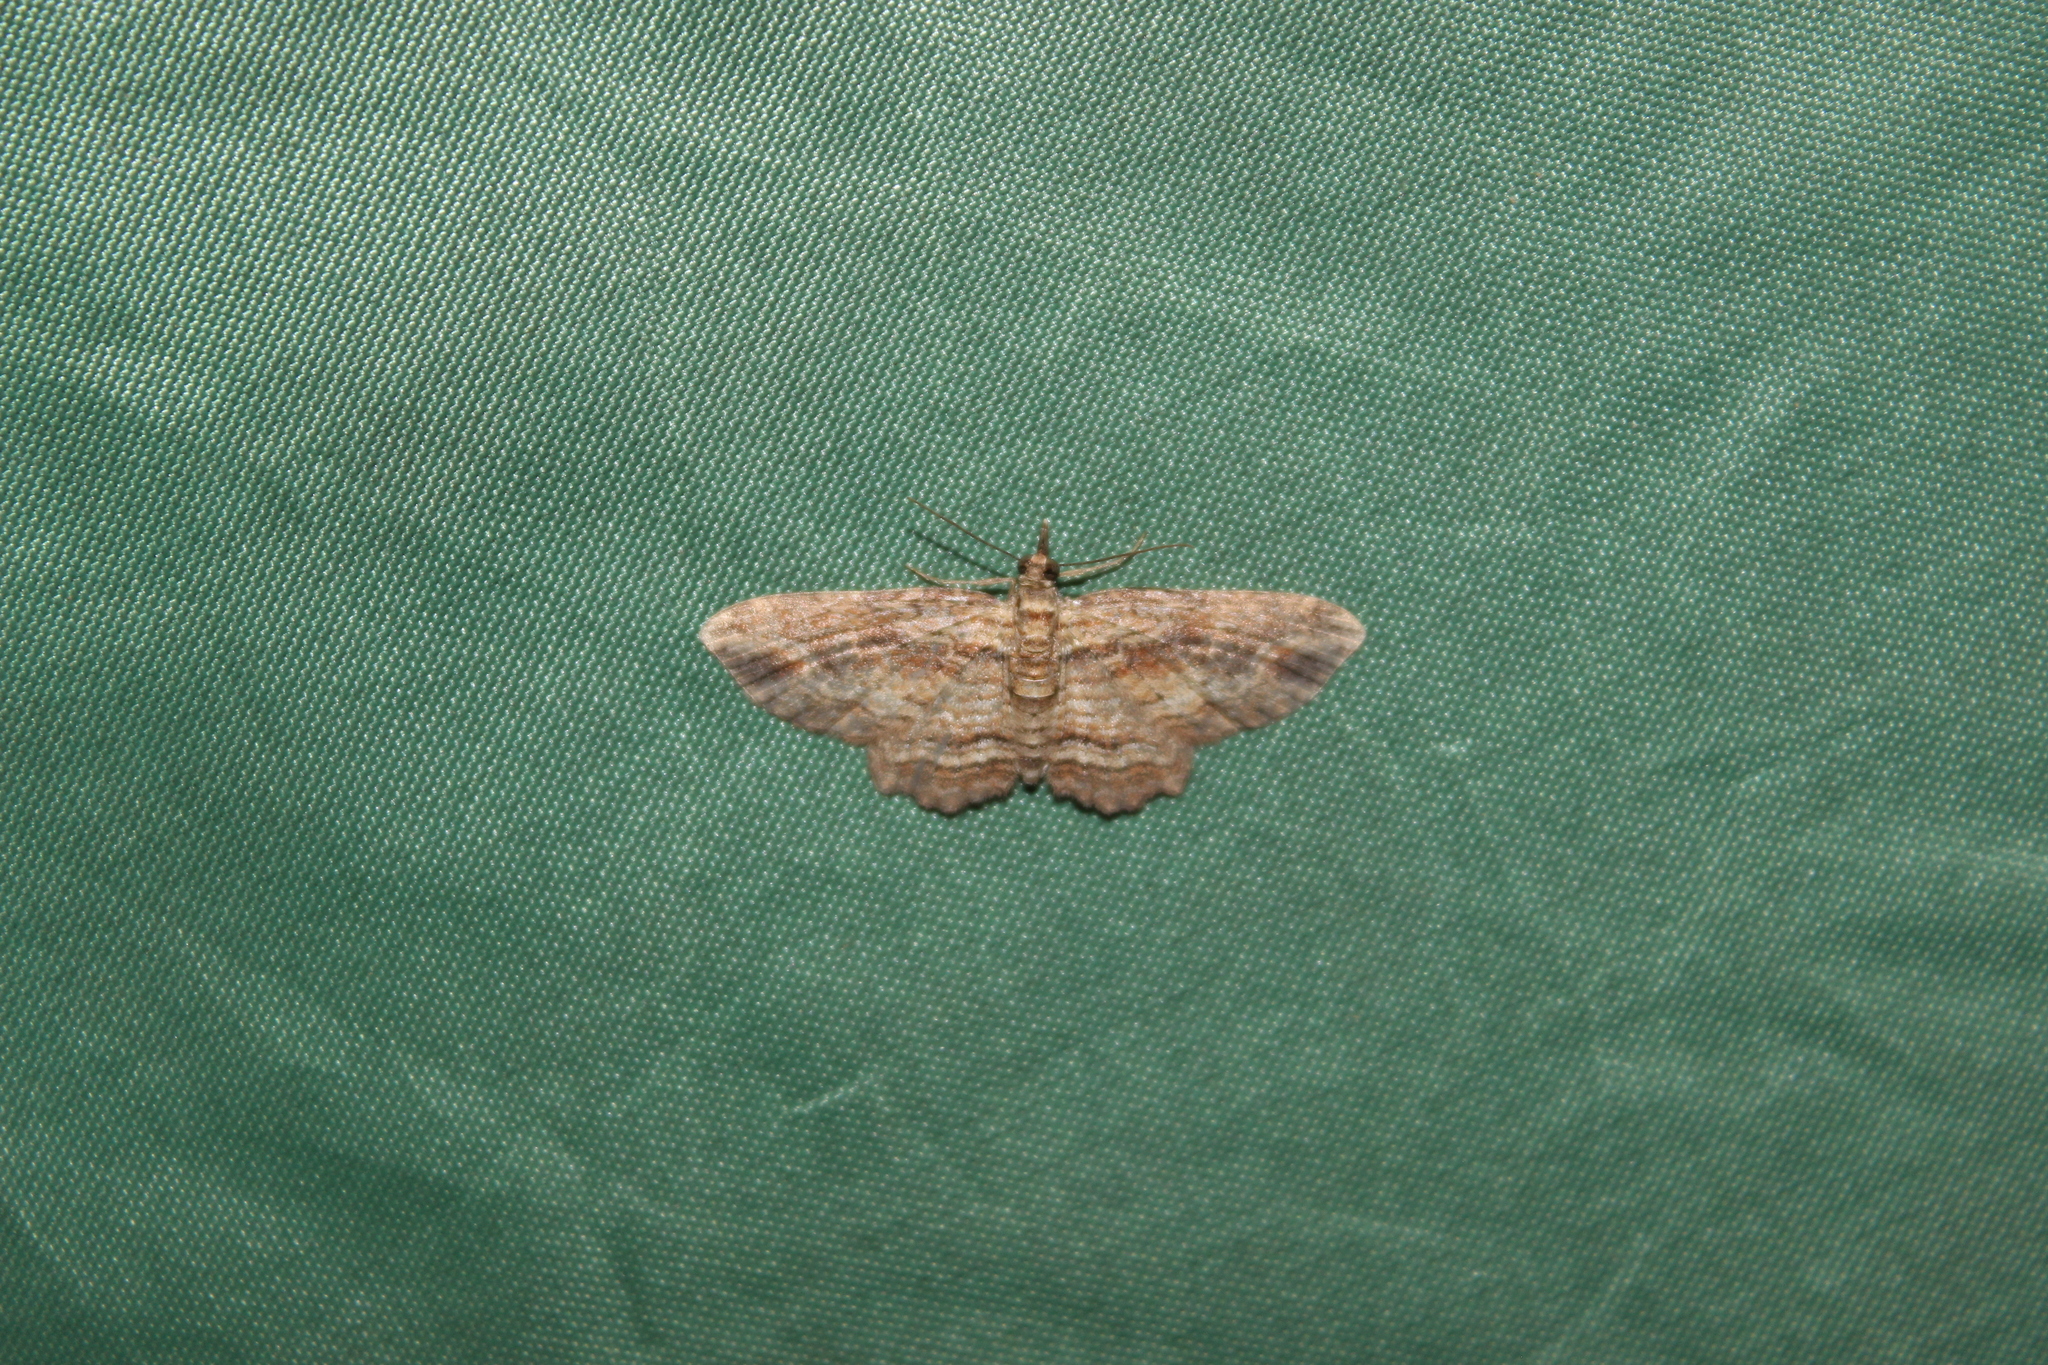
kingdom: Animalia
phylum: Arthropoda
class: Insecta
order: Lepidoptera
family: Geometridae
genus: Chloroclystis
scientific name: Chloroclystis filata
